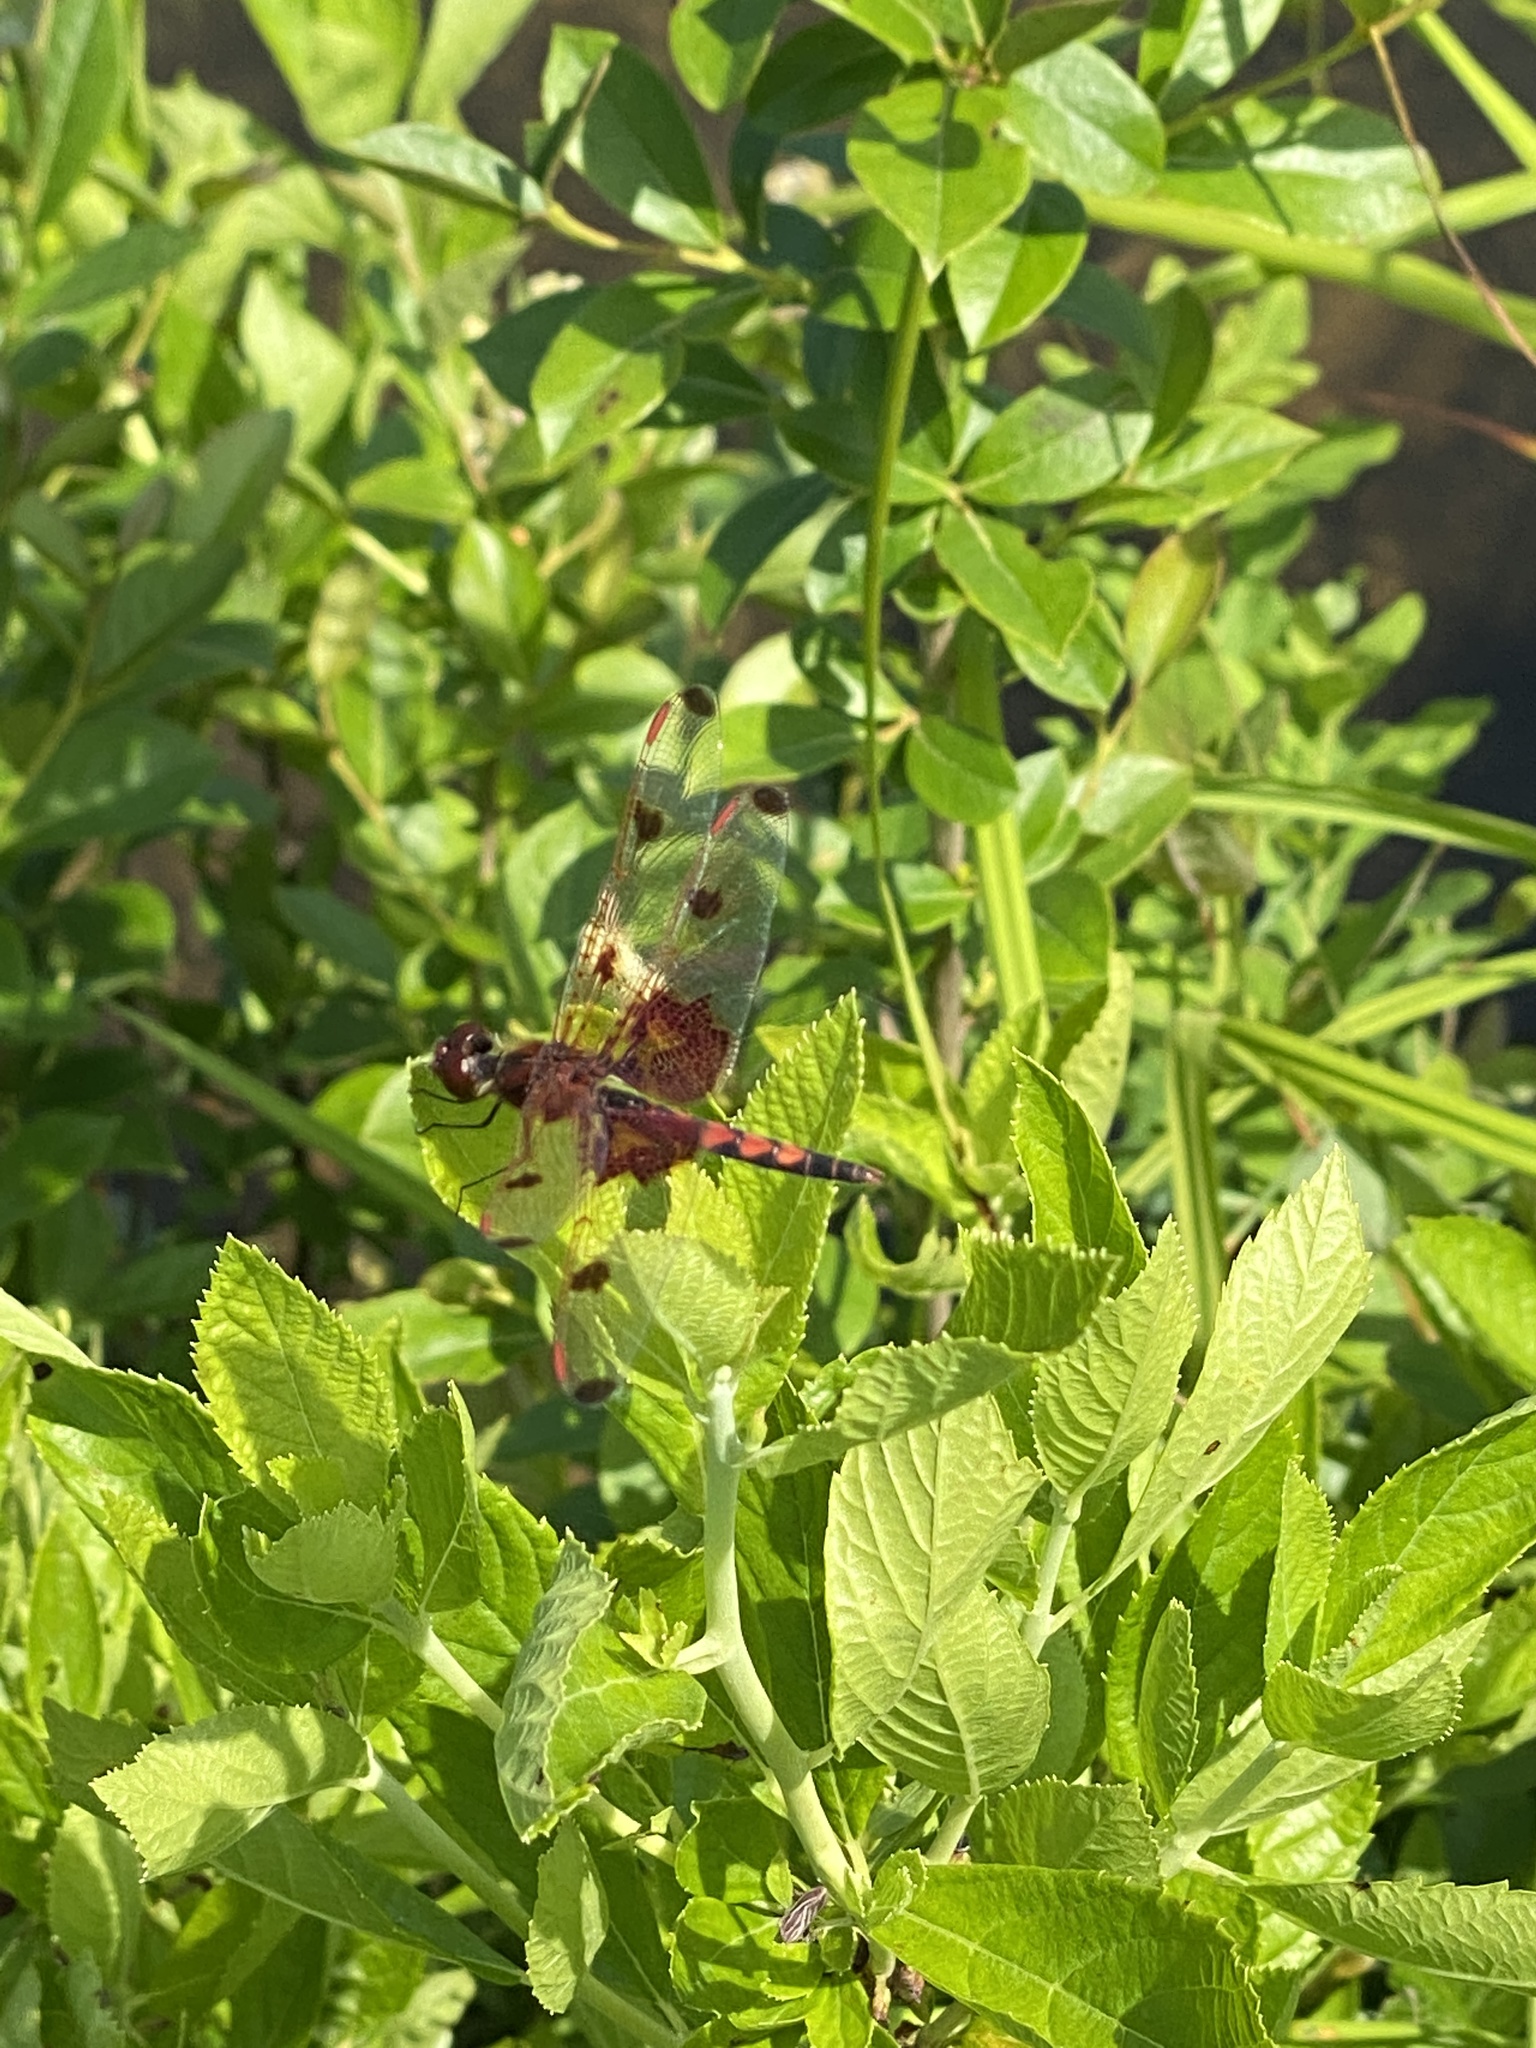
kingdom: Animalia
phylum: Arthropoda
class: Insecta
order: Odonata
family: Libellulidae
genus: Celithemis
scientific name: Celithemis elisa
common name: Calico pennant
